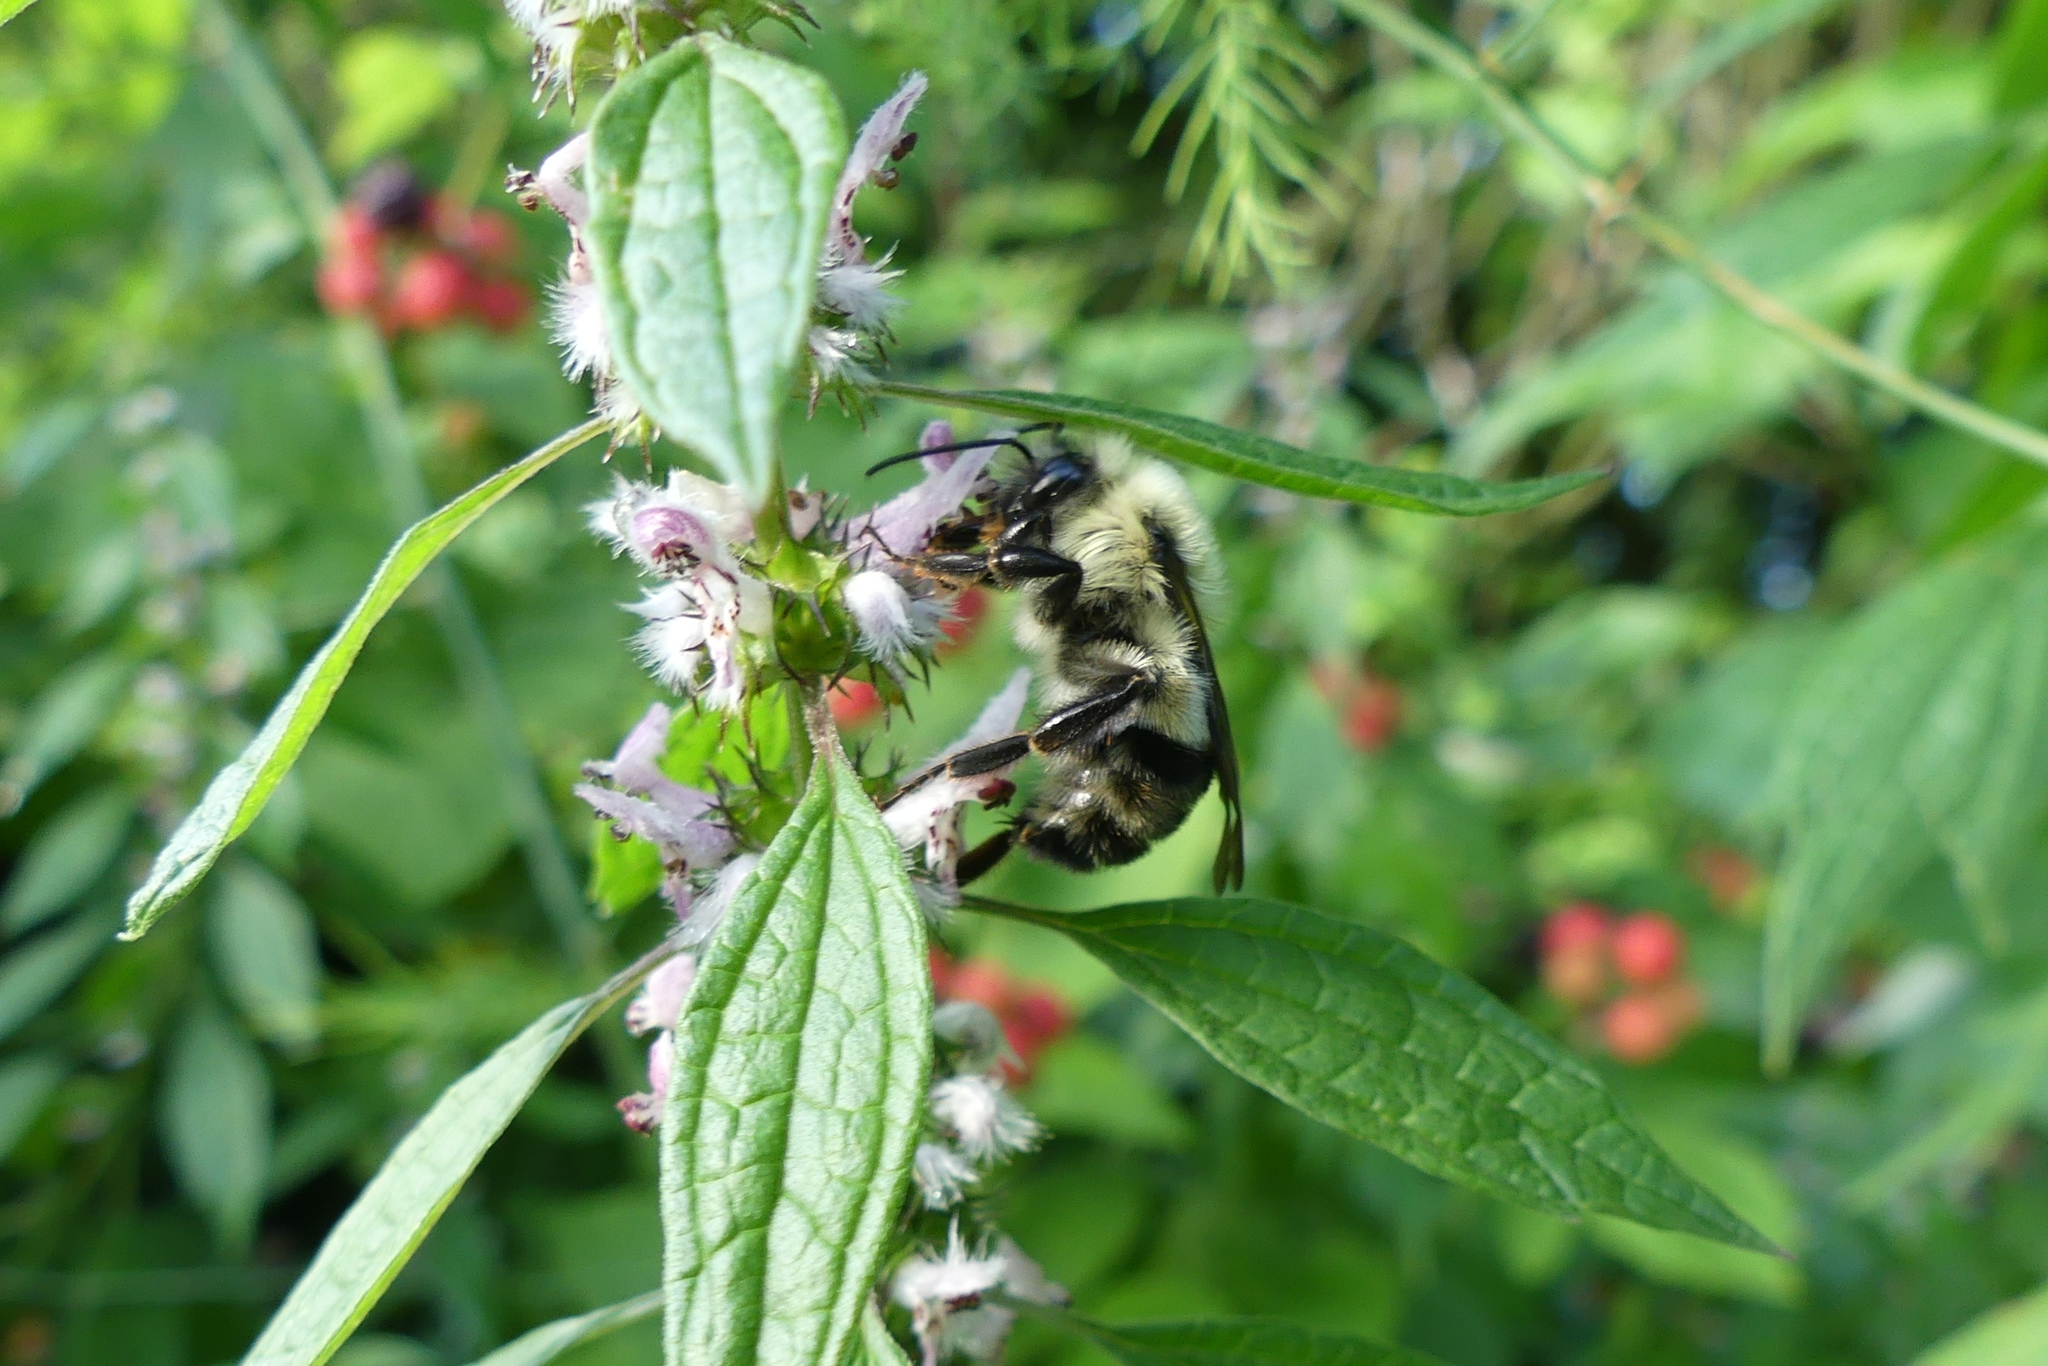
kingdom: Animalia
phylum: Arthropoda
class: Insecta
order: Hymenoptera
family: Apidae
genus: Bombus
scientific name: Bombus bimaculatus
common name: Two-spotted bumble bee
